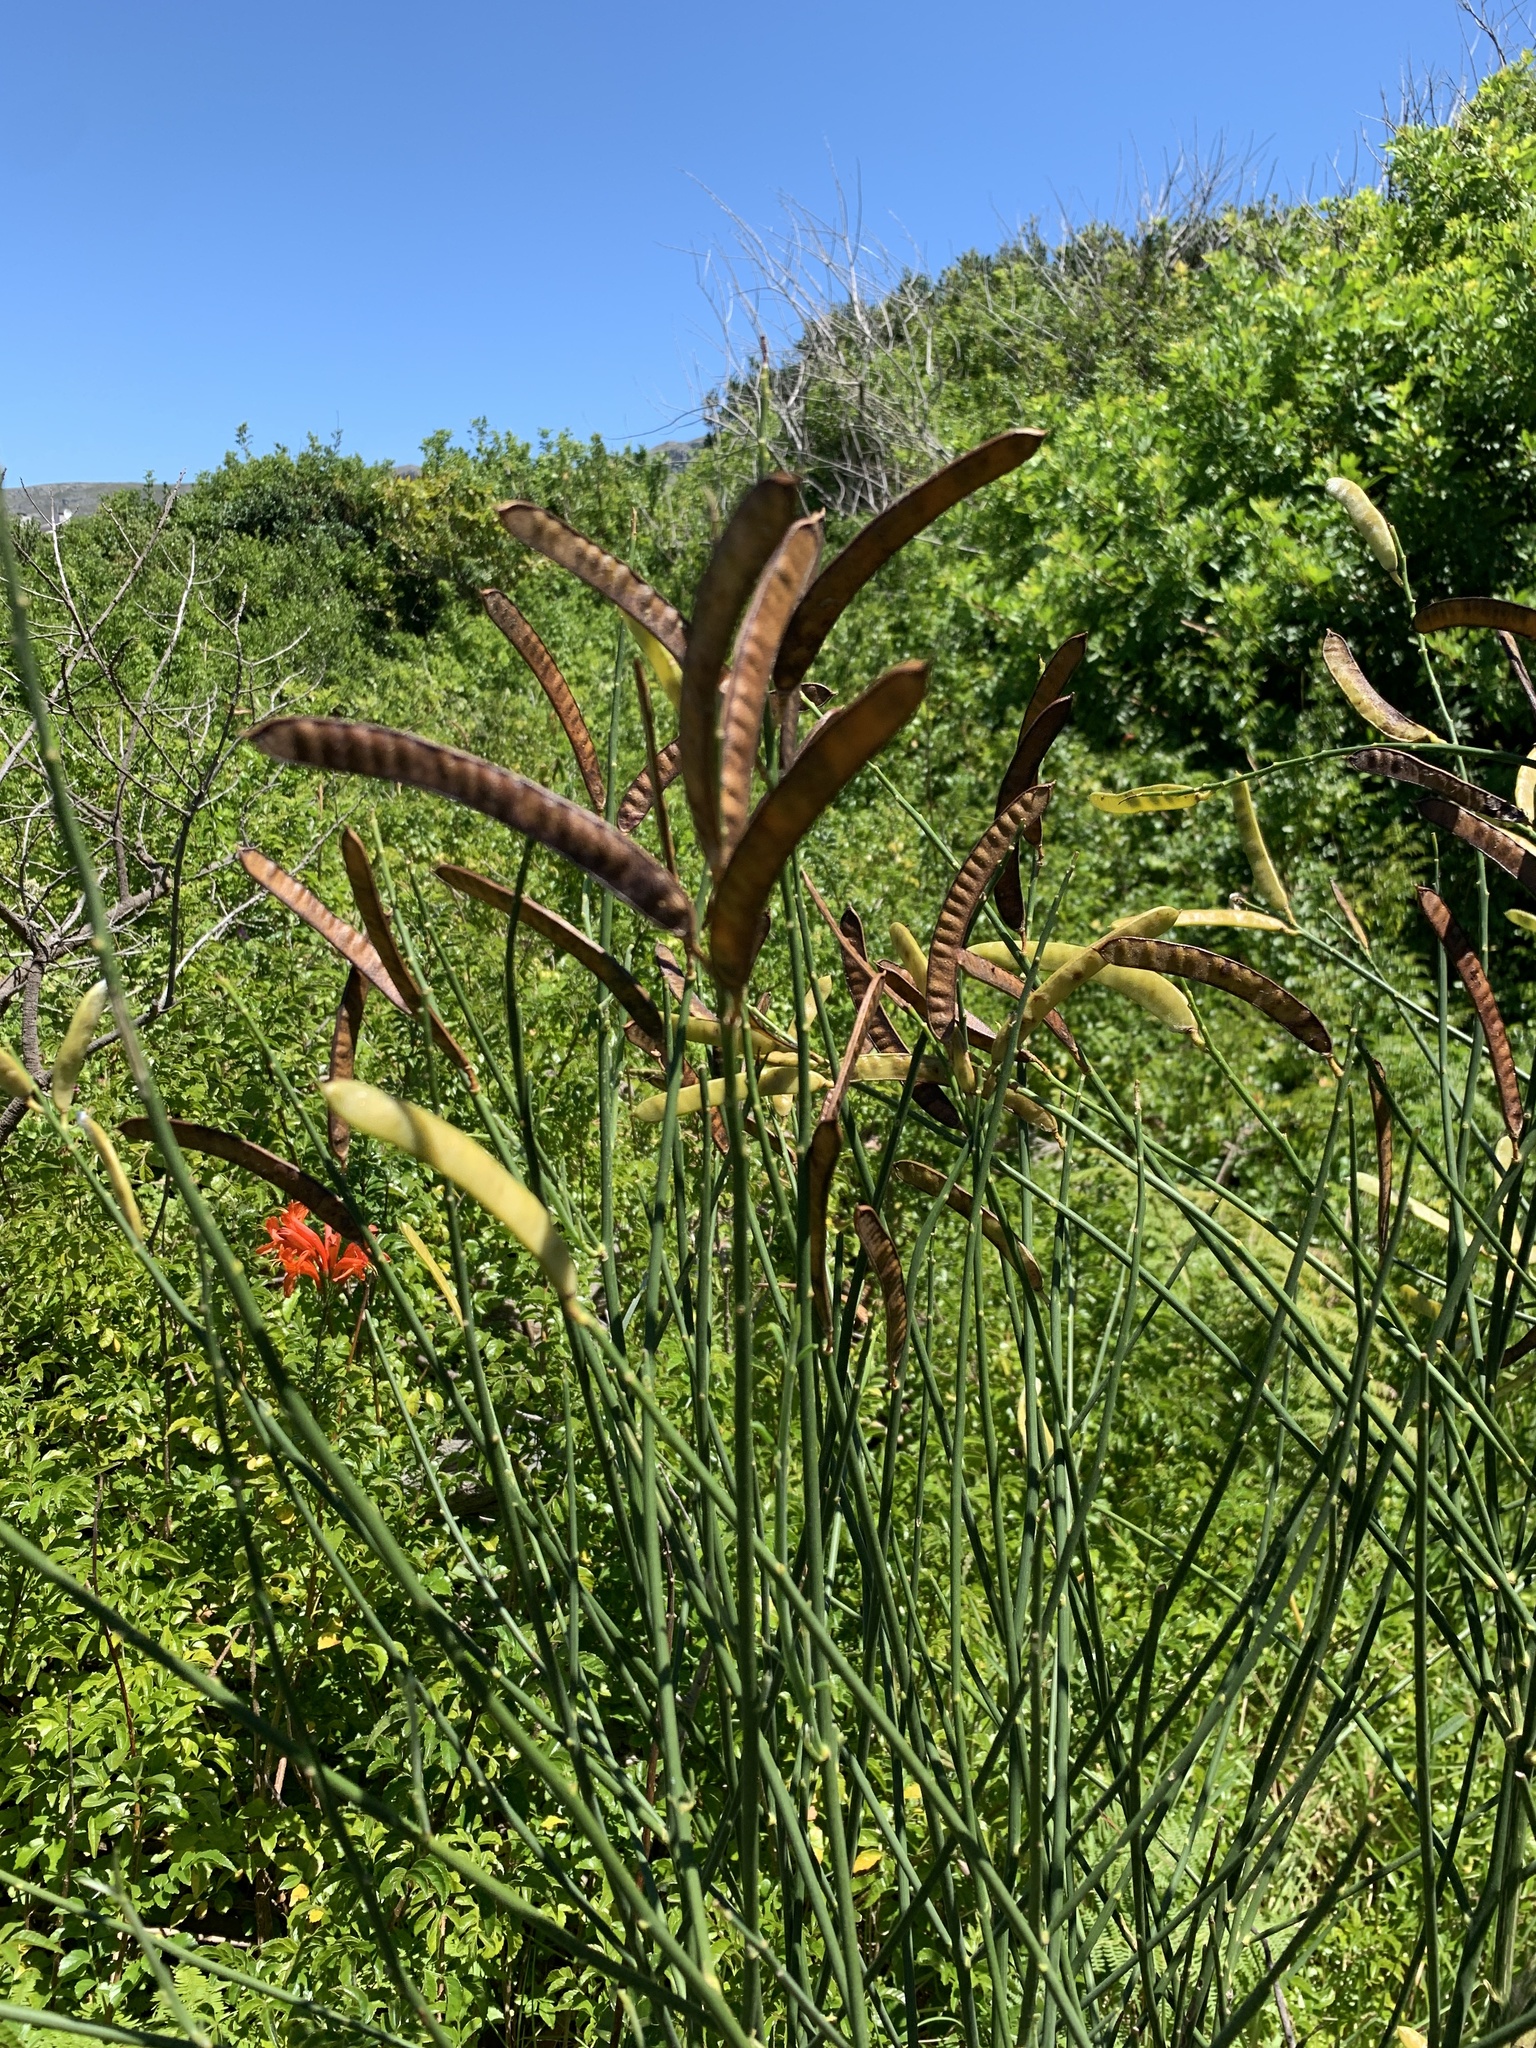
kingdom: Plantae
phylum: Tracheophyta
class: Magnoliopsida
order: Fabales
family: Fabaceae
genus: Spartium
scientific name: Spartium junceum
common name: Spanish broom
